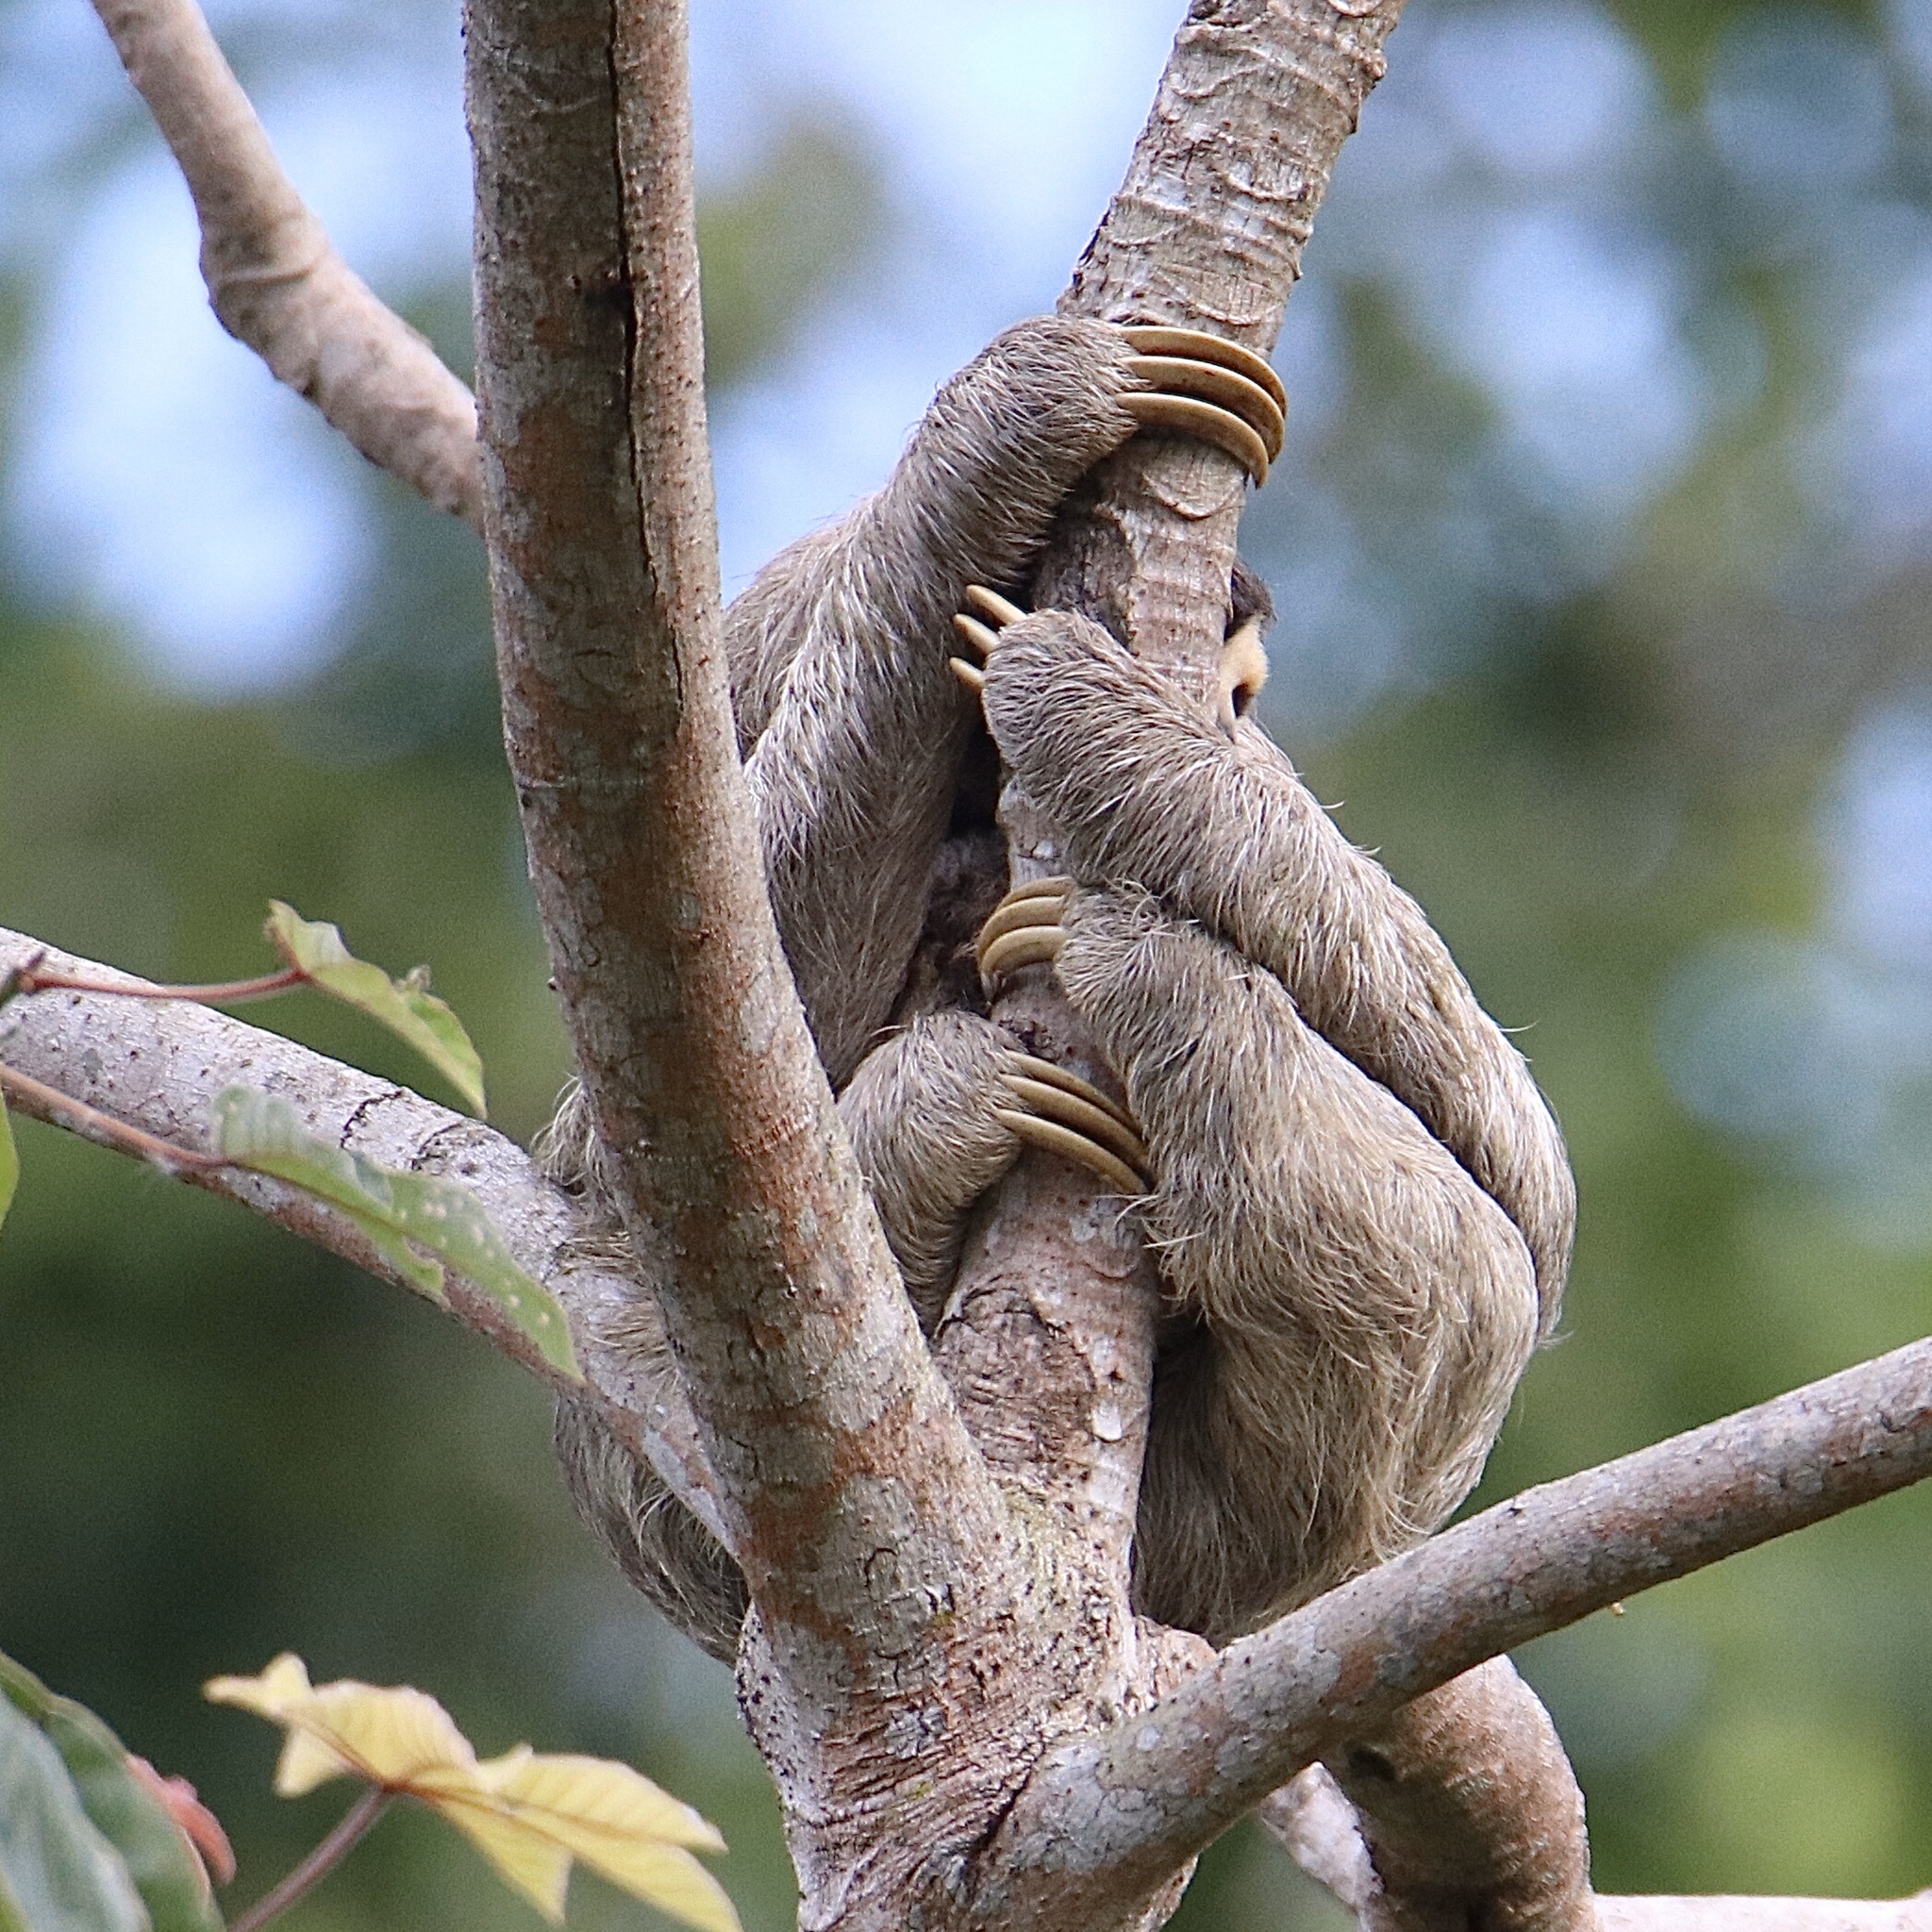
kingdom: Animalia
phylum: Chordata
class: Mammalia
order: Pilosa
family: Bradypodidae
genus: Bradypus
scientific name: Bradypus variegatus
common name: Brown-throated three-toed sloth
